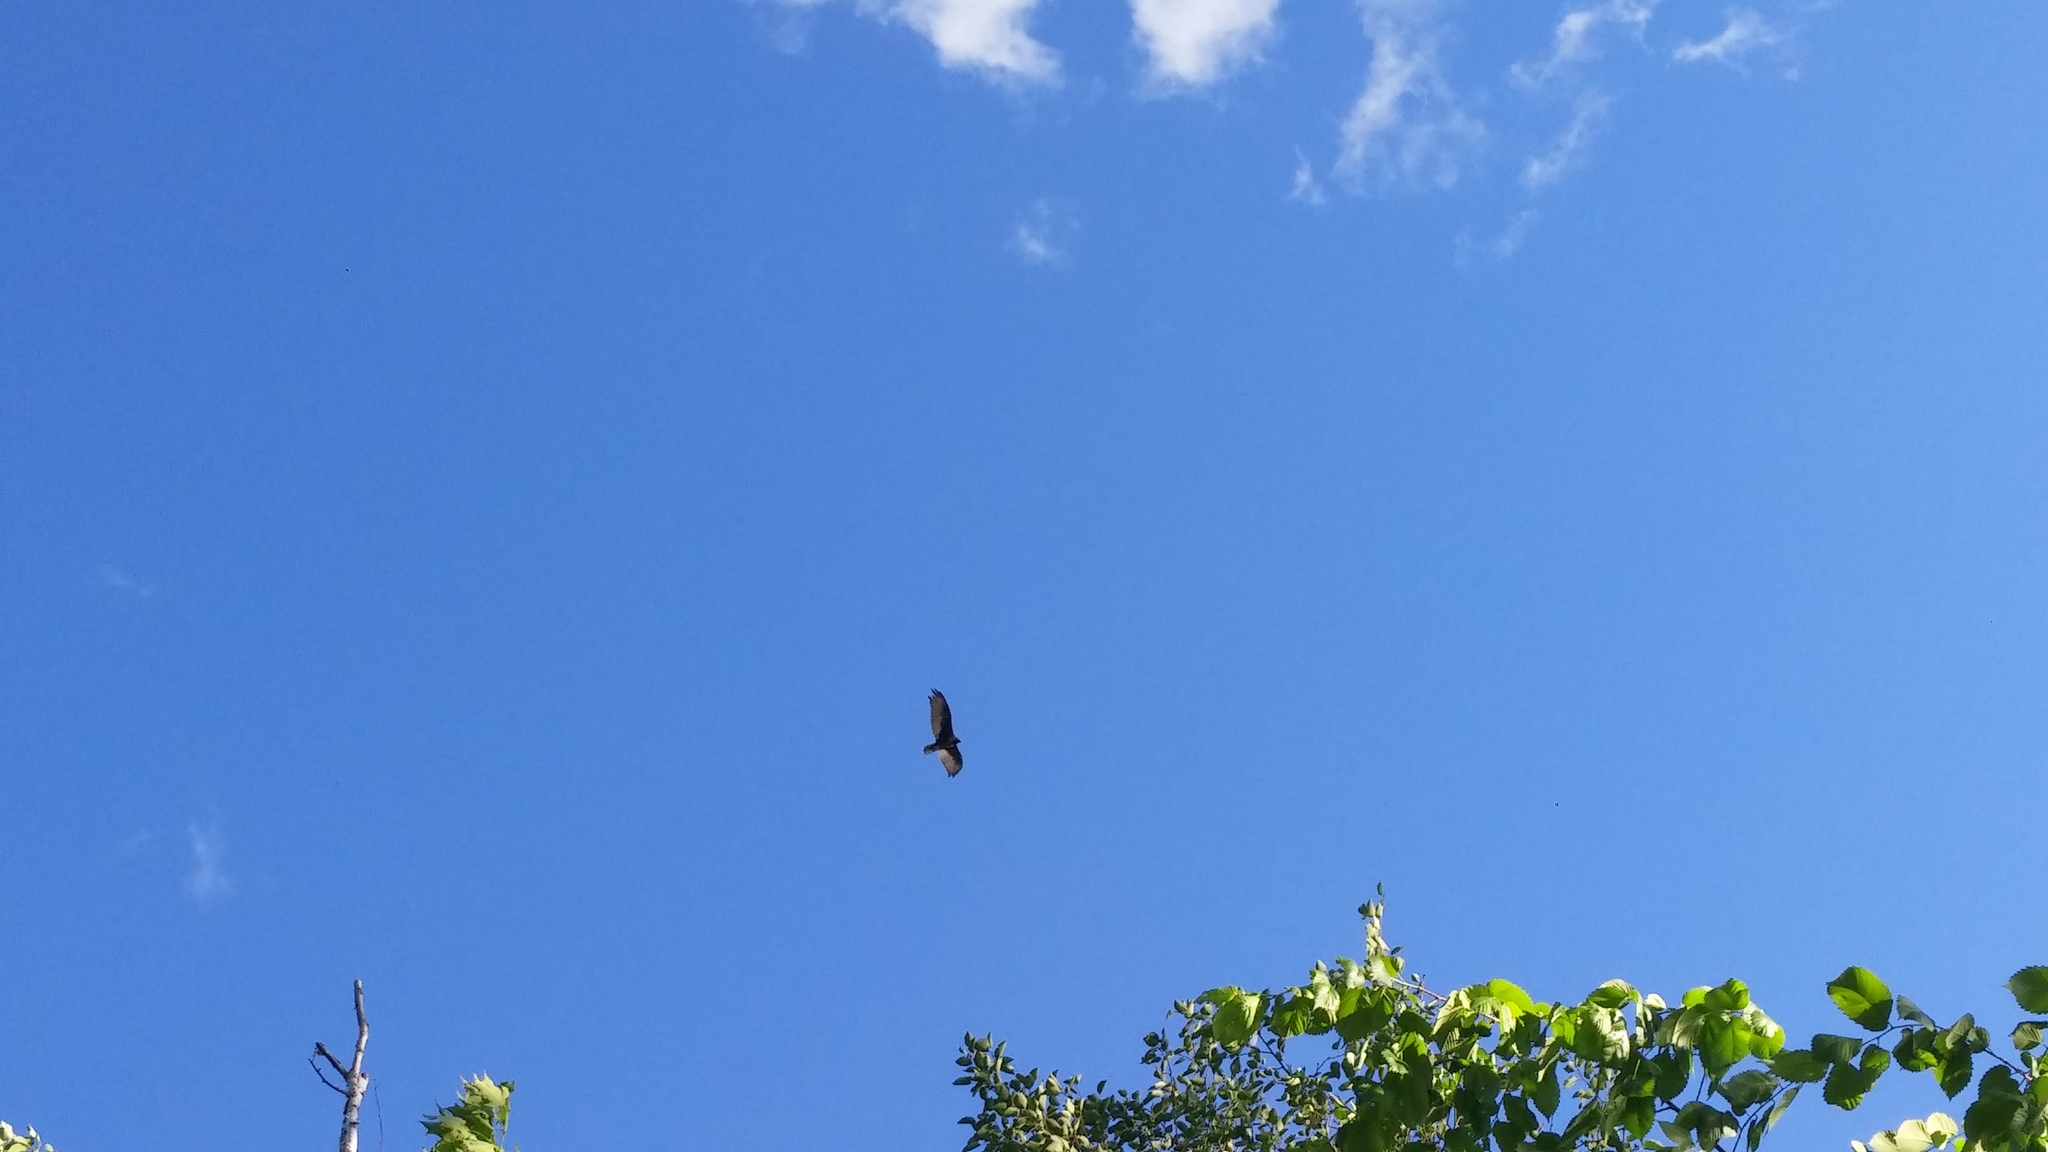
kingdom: Animalia
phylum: Chordata
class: Aves
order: Accipitriformes
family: Cathartidae
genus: Cathartes
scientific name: Cathartes aura
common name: Turkey vulture
